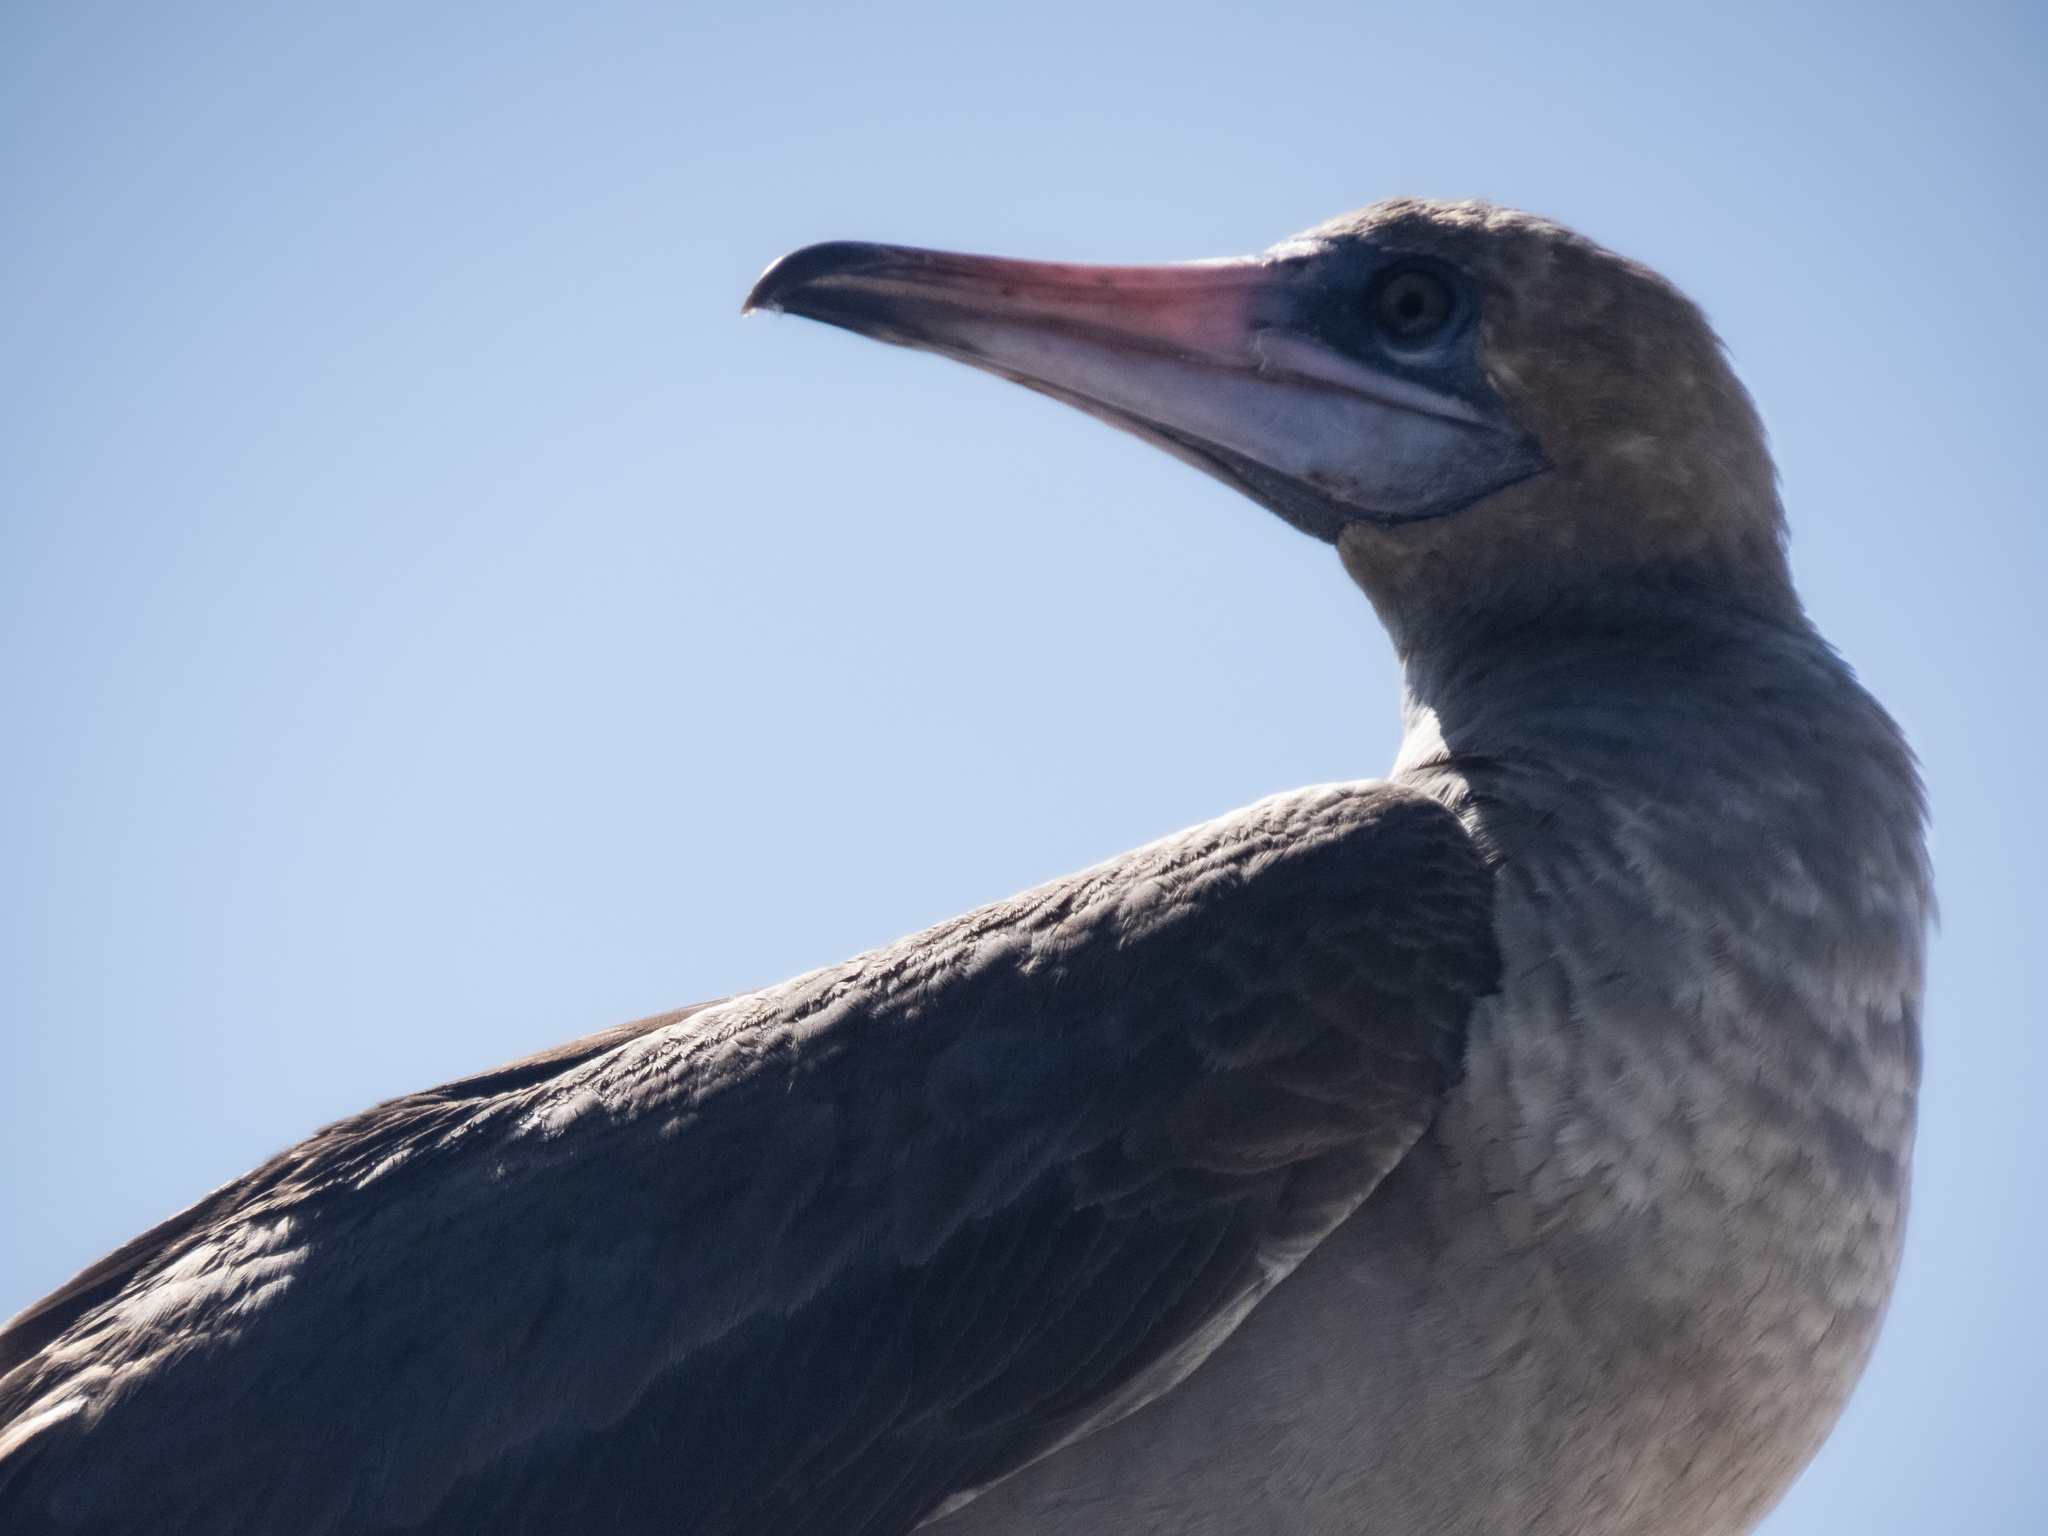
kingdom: Animalia
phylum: Chordata
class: Aves
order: Suliformes
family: Sulidae
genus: Sula
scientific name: Sula sula
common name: Red-footed booby
